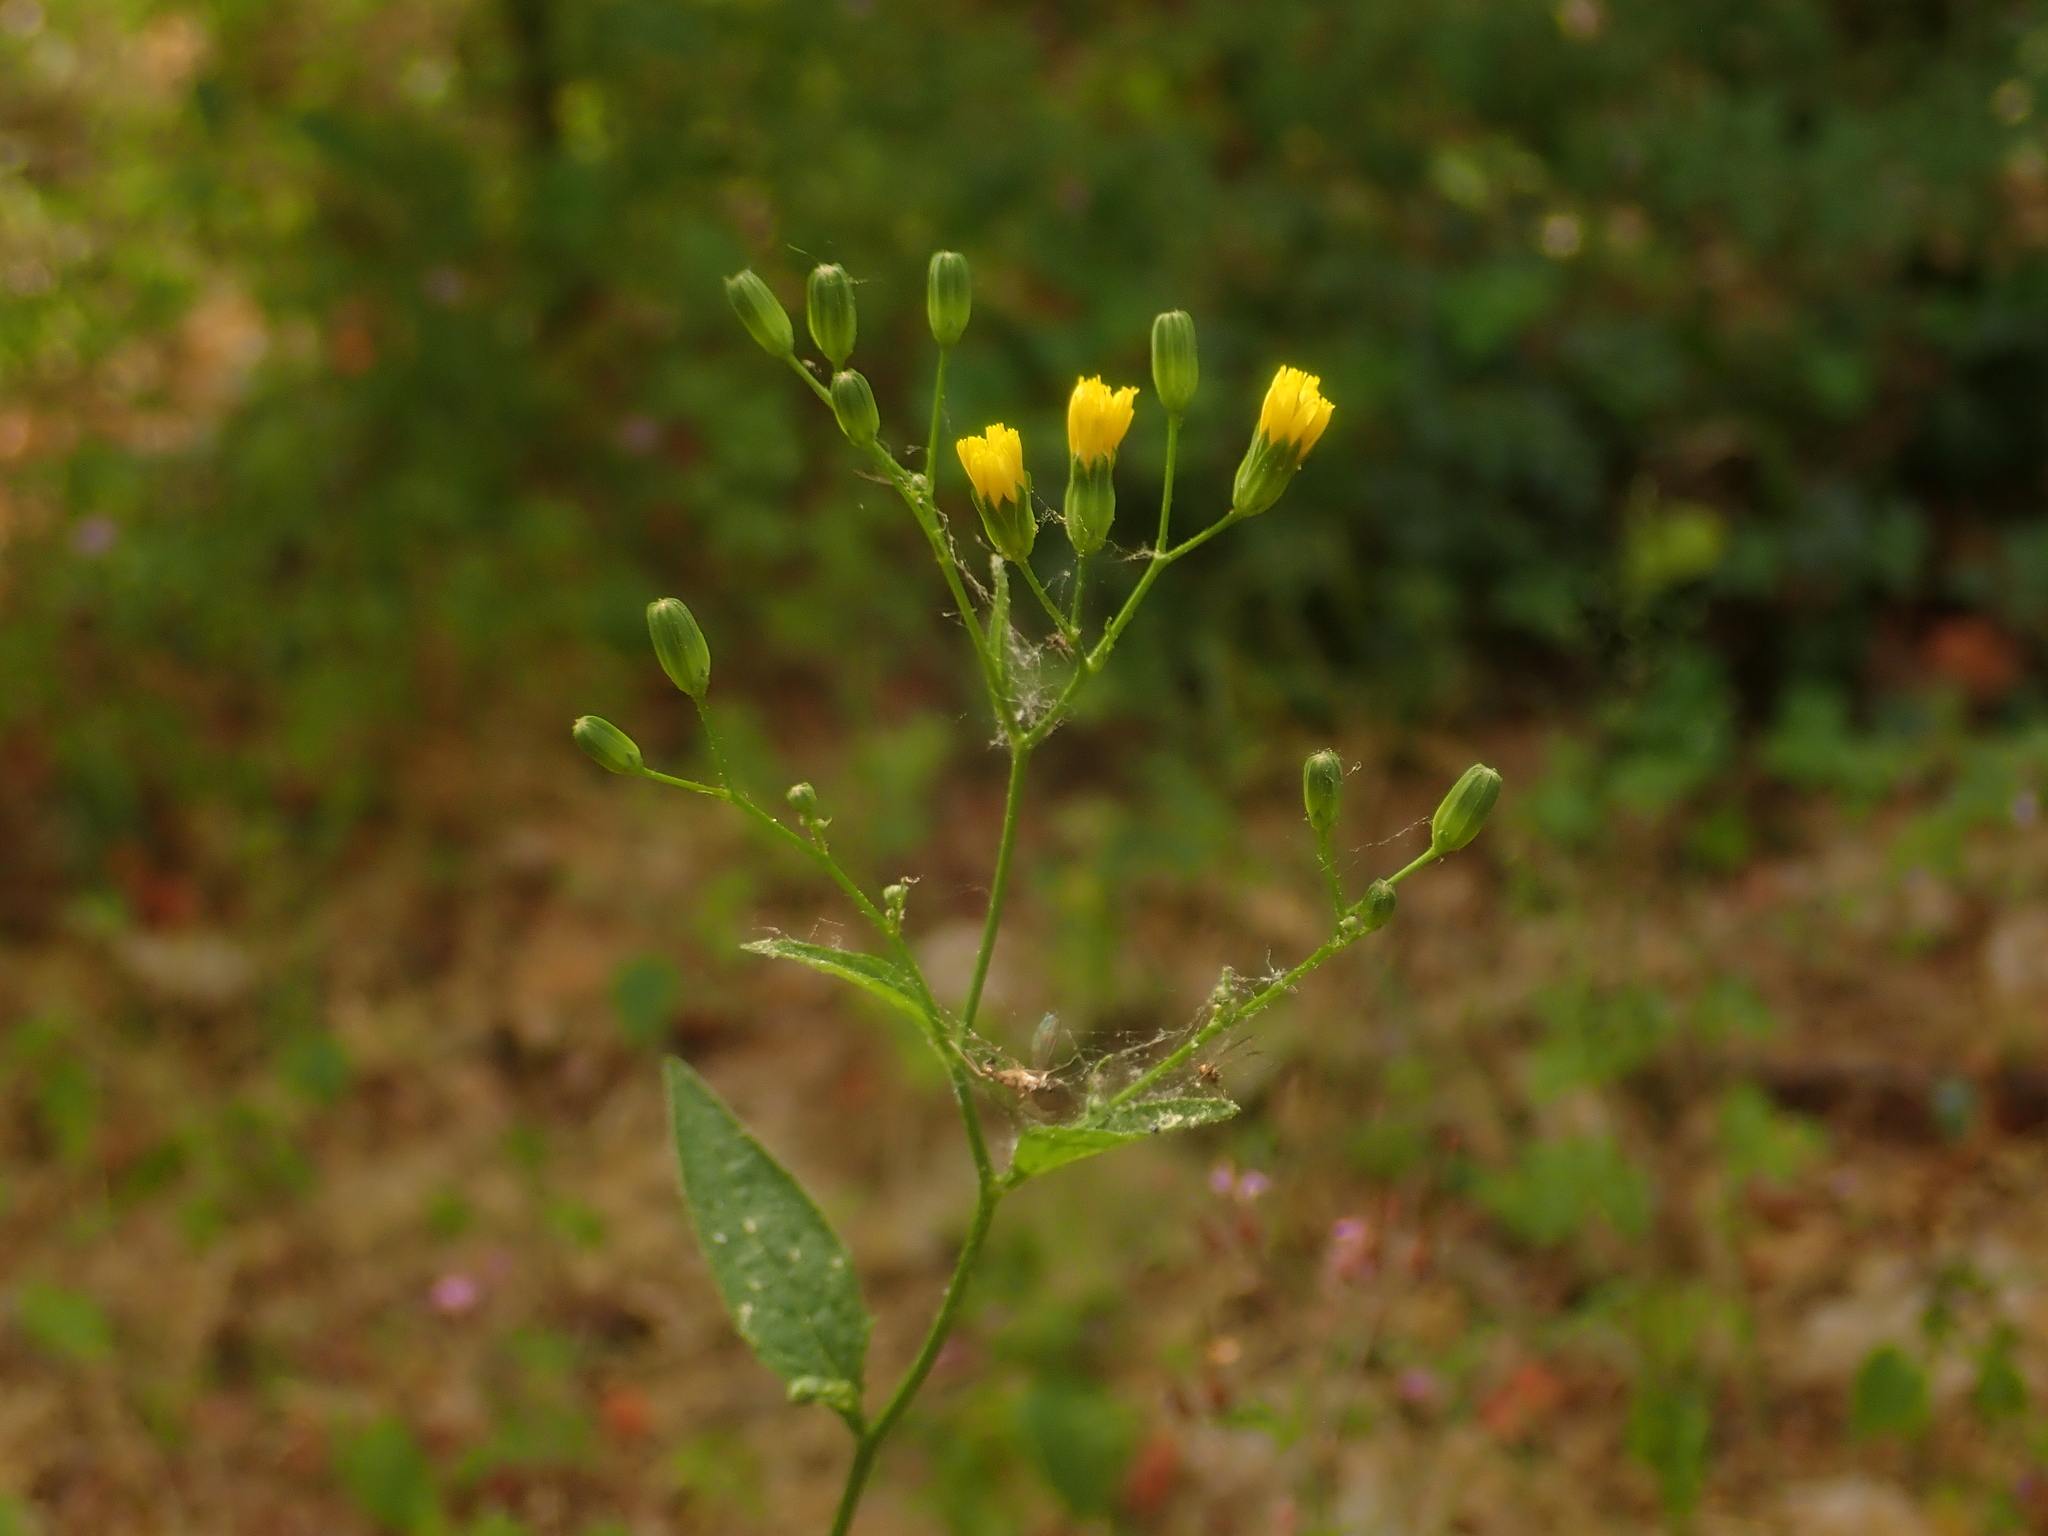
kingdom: Plantae
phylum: Tracheophyta
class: Magnoliopsida
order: Asterales
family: Asteraceae
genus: Lapsana
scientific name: Lapsana communis
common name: Nipplewort
